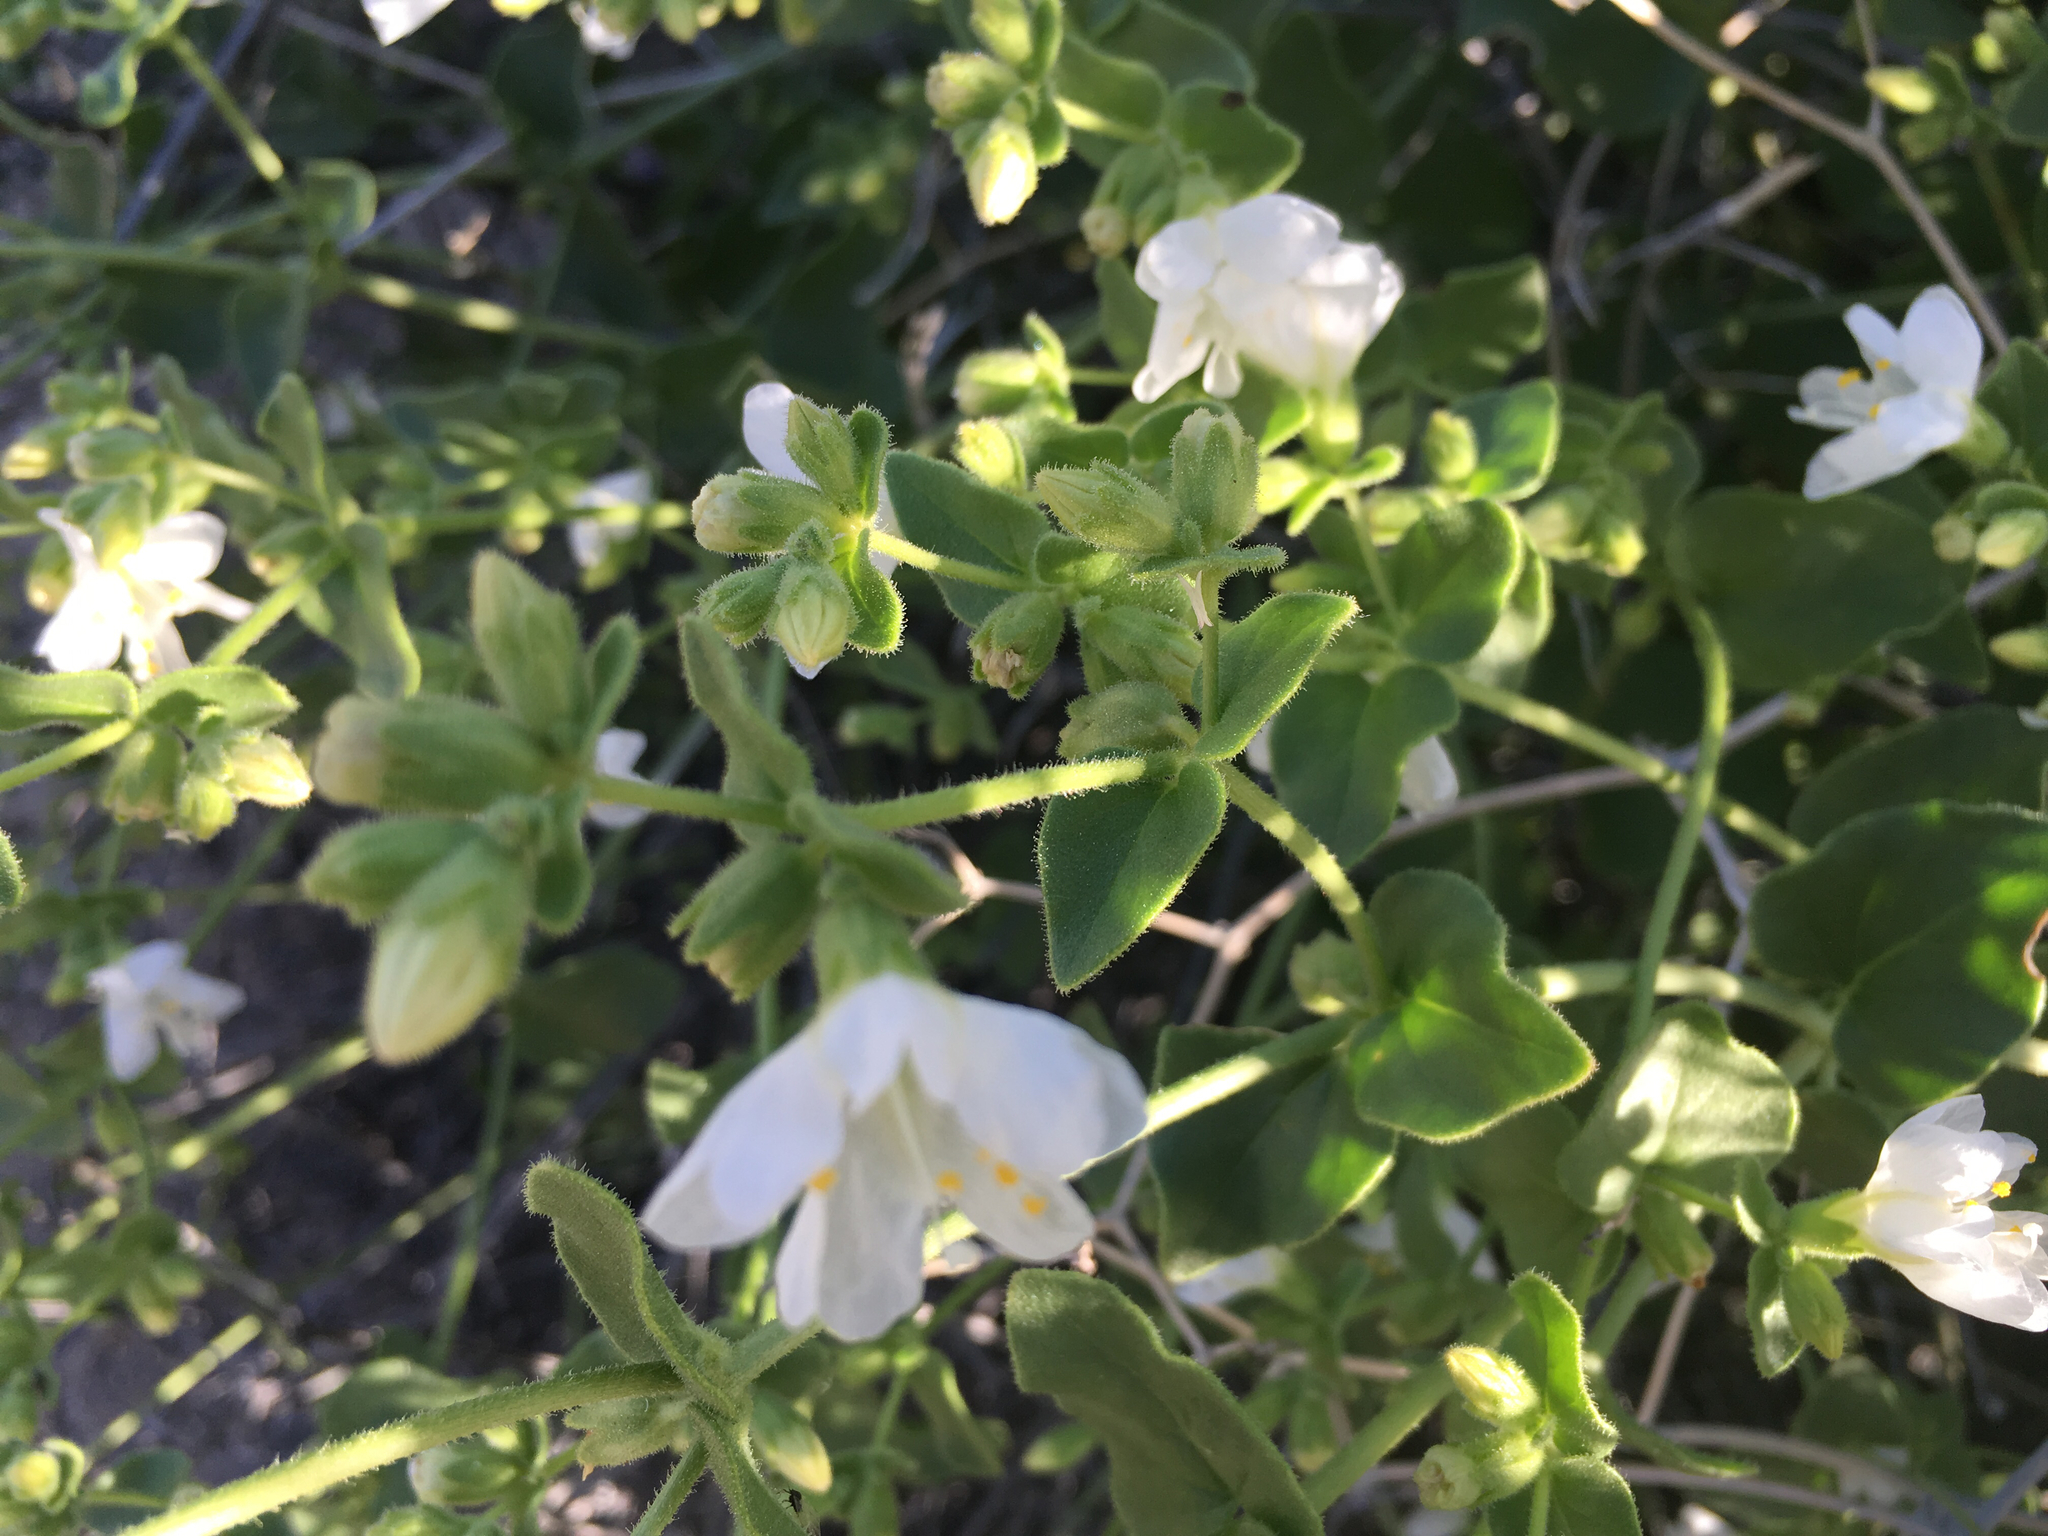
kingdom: Plantae
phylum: Tracheophyta
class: Magnoliopsida
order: Caryophyllales
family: Nyctaginaceae
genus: Mirabilis
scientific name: Mirabilis laevis
